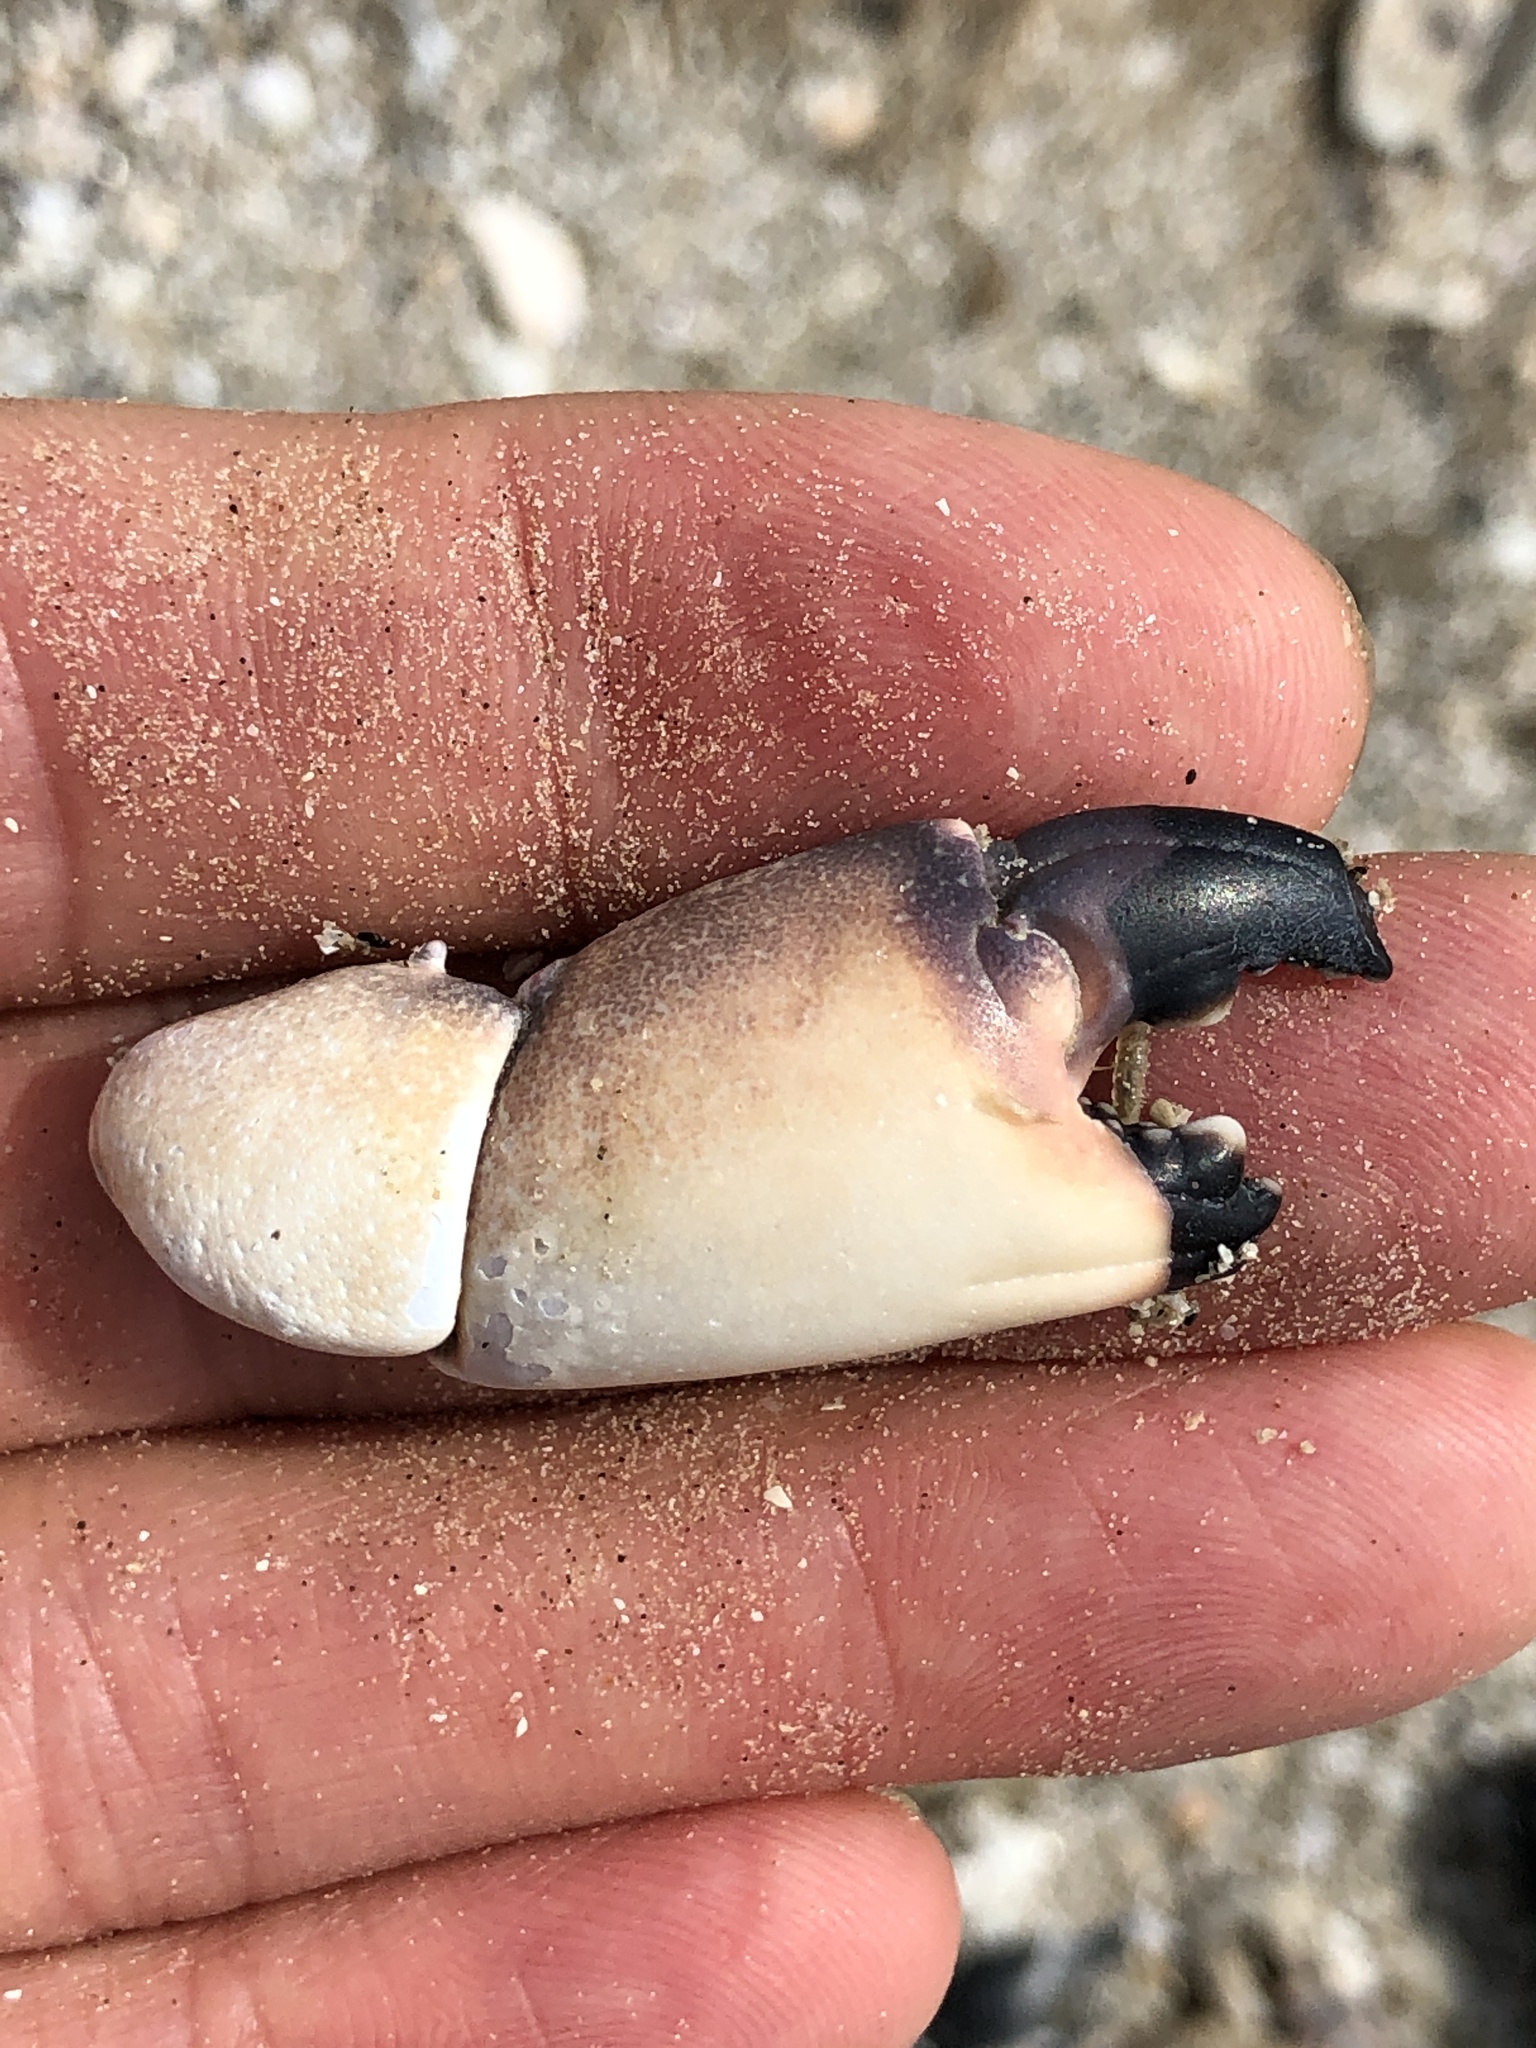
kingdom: Animalia
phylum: Arthropoda
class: Malacostraca
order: Decapoda
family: Menippidae
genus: Menippe
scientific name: Menippe adina
